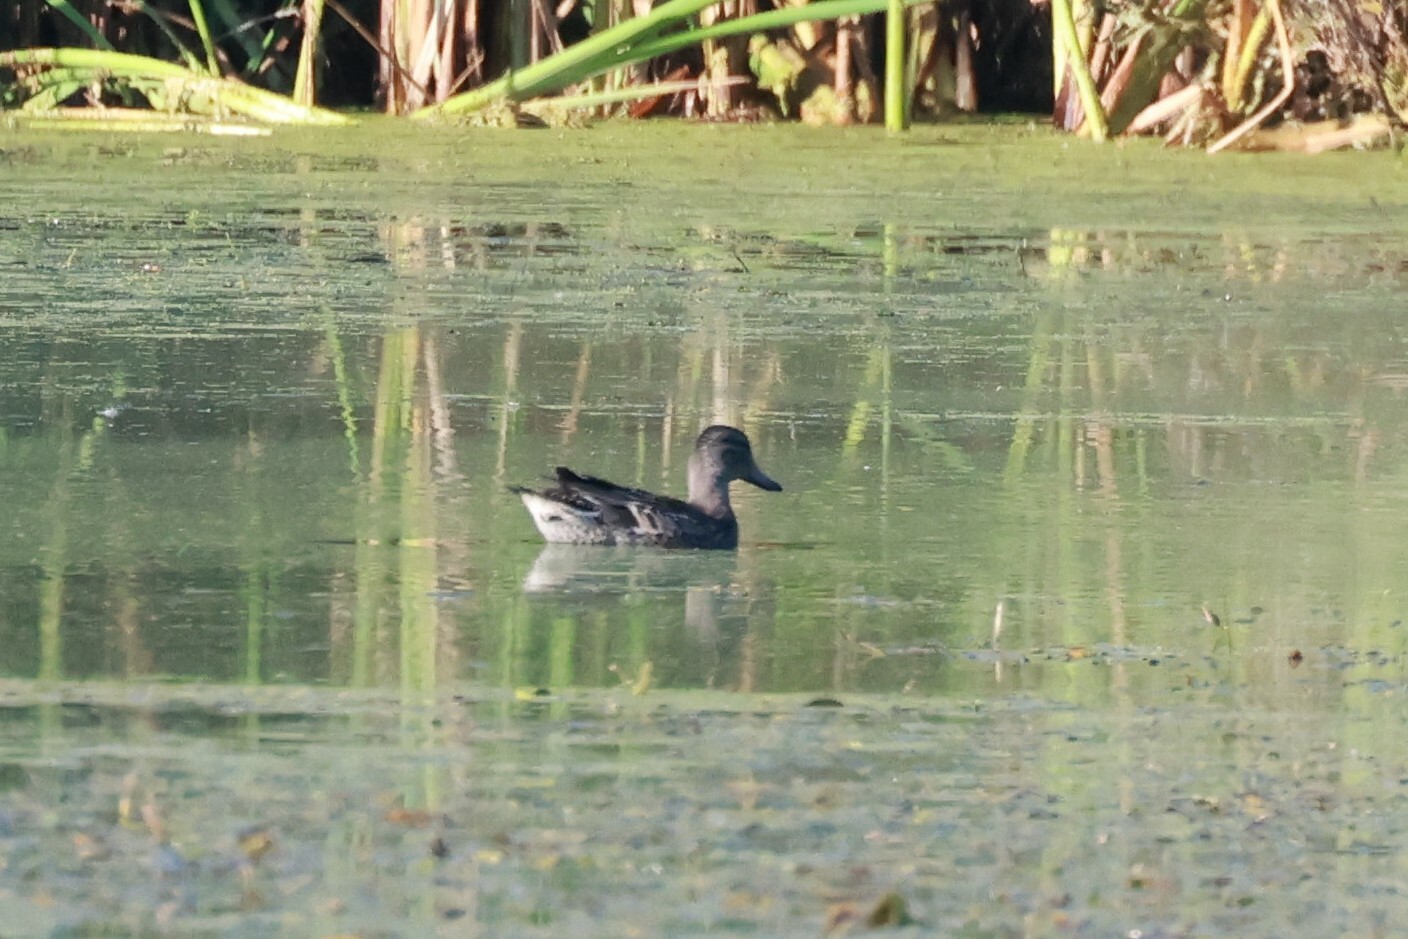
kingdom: Animalia
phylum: Chordata
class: Aves
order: Anseriformes
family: Anatidae
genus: Anas
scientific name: Anas crecca
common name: Eurasian teal
